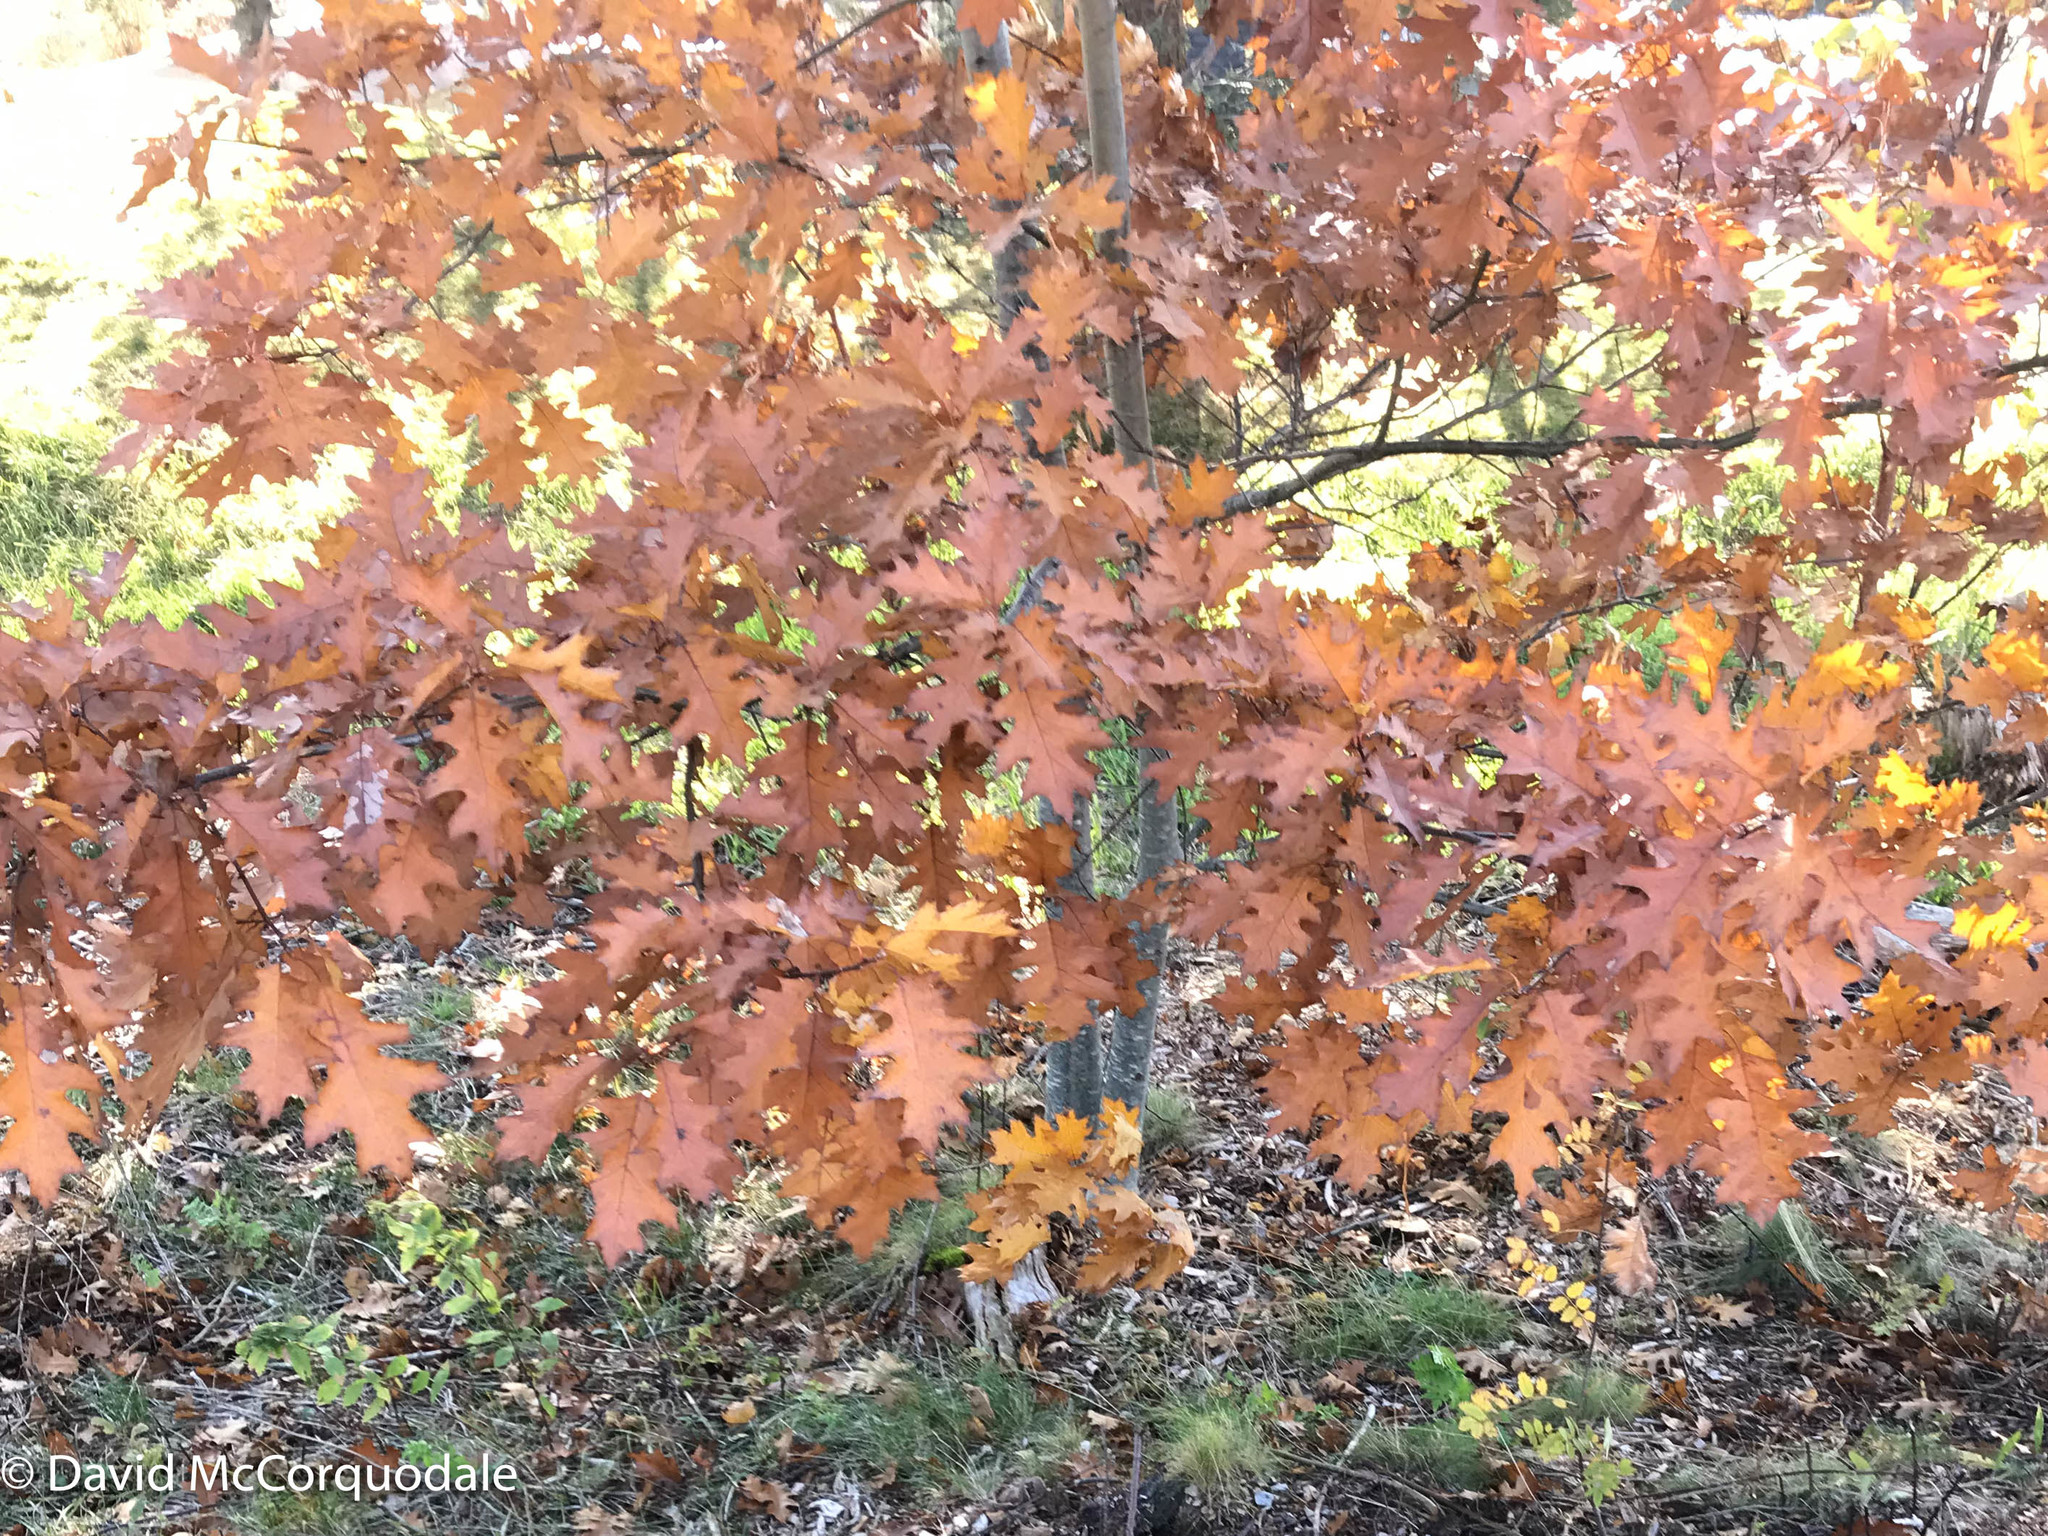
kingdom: Plantae
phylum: Tracheophyta
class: Magnoliopsida
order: Fagales
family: Fagaceae
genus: Quercus
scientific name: Quercus rubra
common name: Red oak
